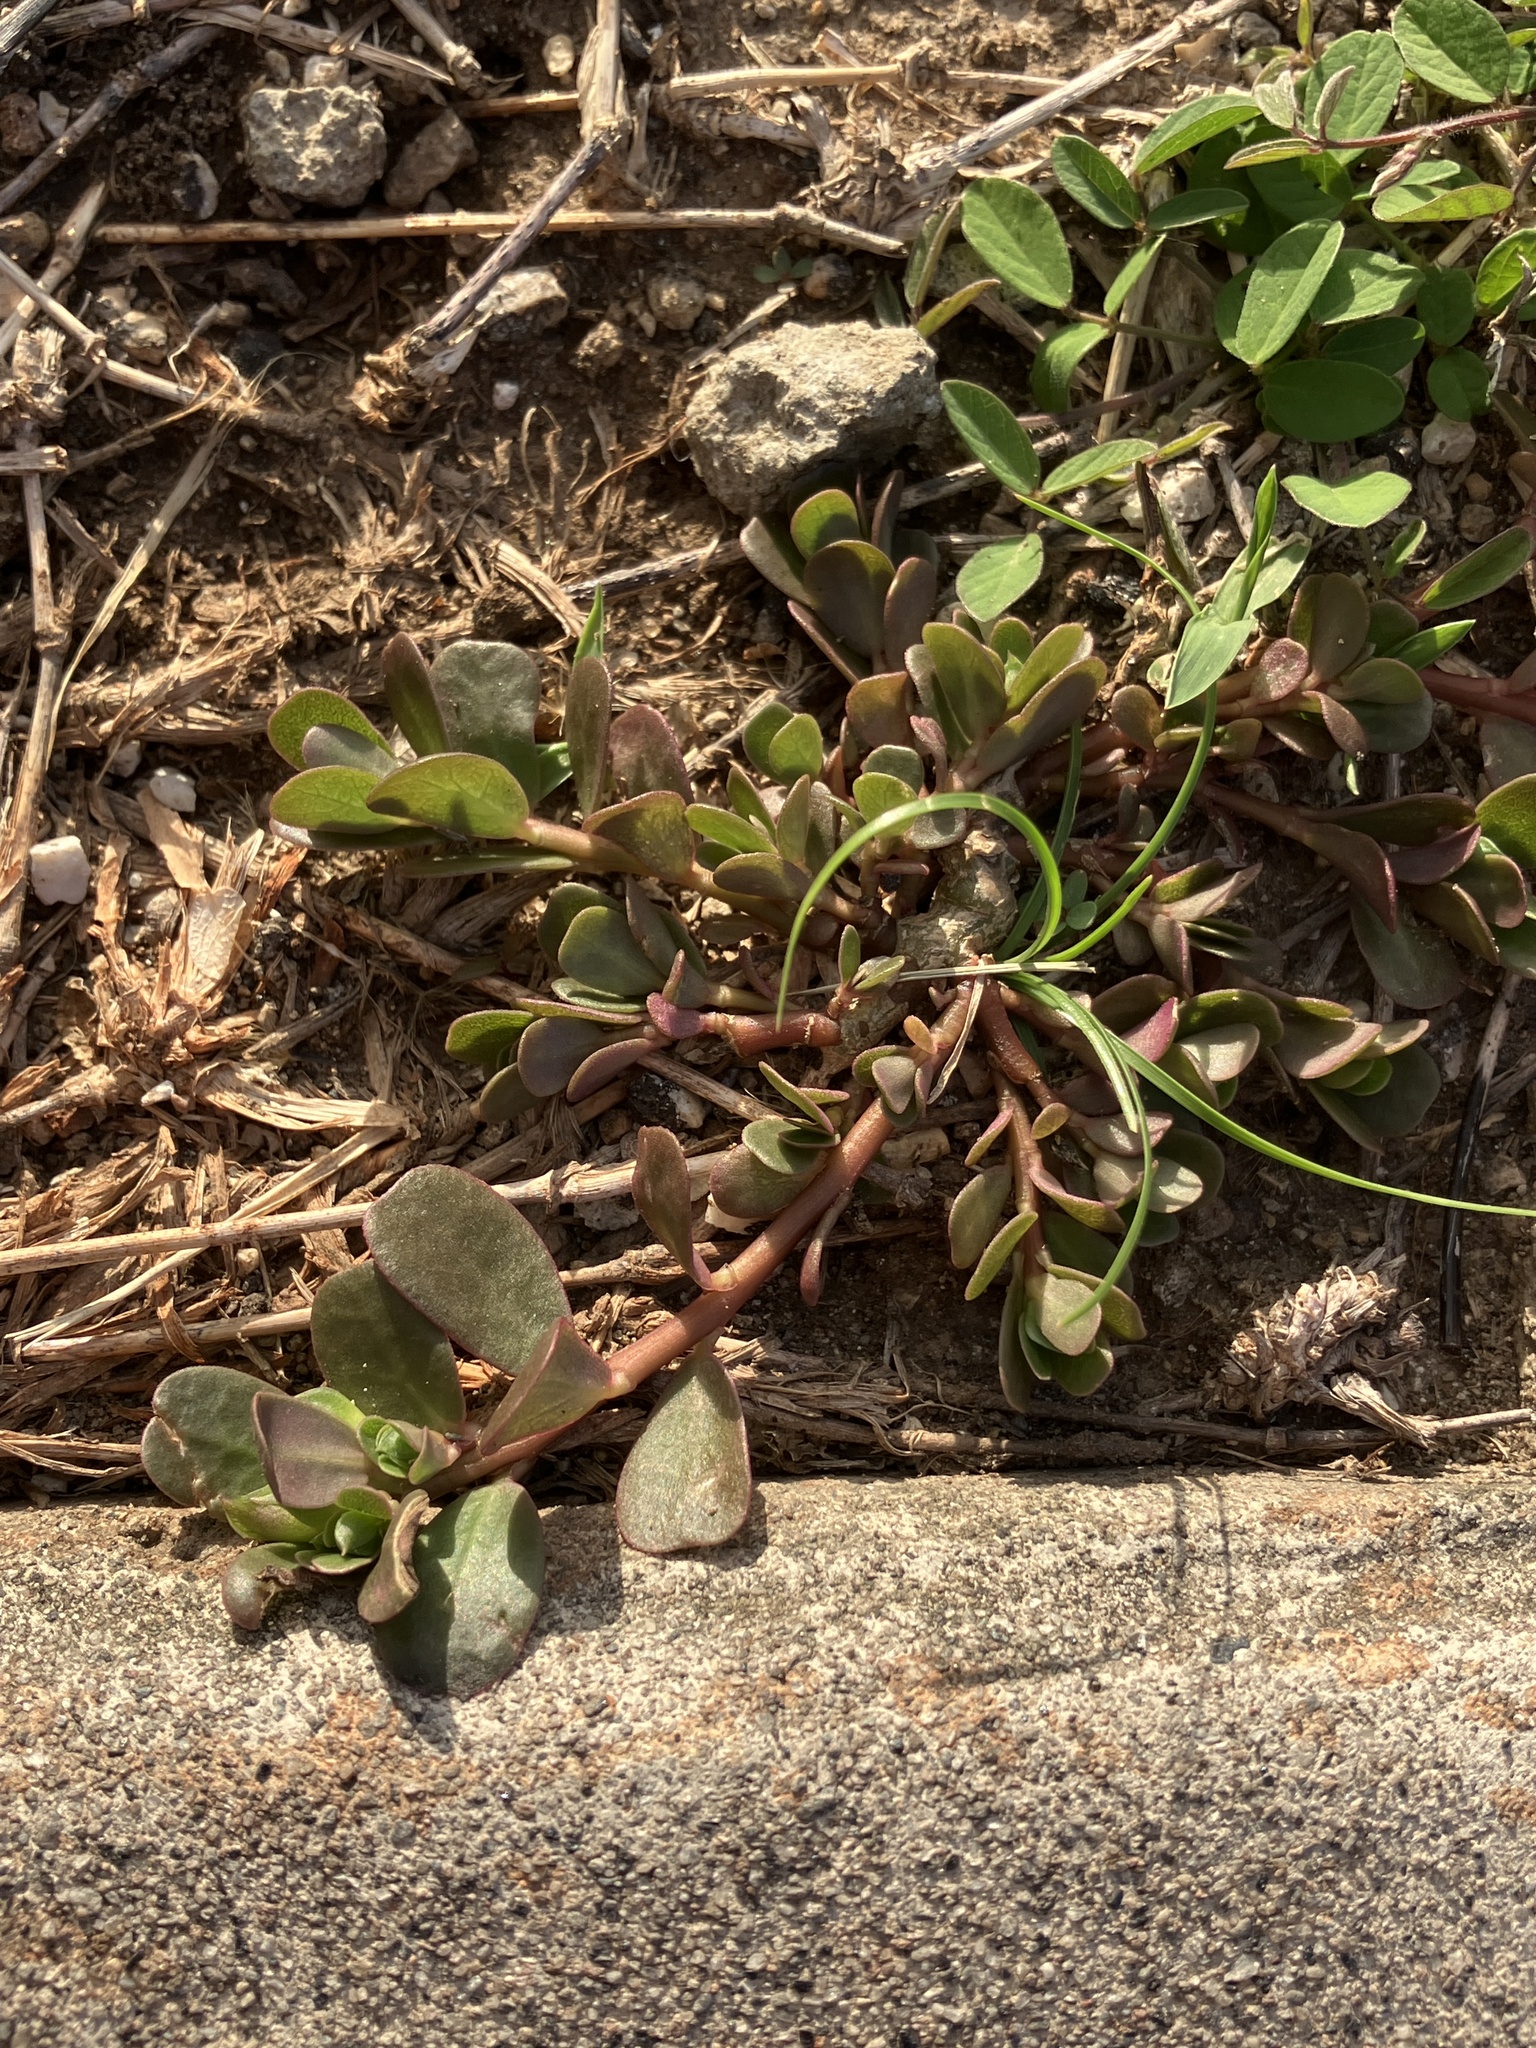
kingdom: Plantae
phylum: Tracheophyta
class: Magnoliopsida
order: Caryophyllales
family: Portulacaceae
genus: Portulaca
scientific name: Portulaca oleracea
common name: Common purslane
